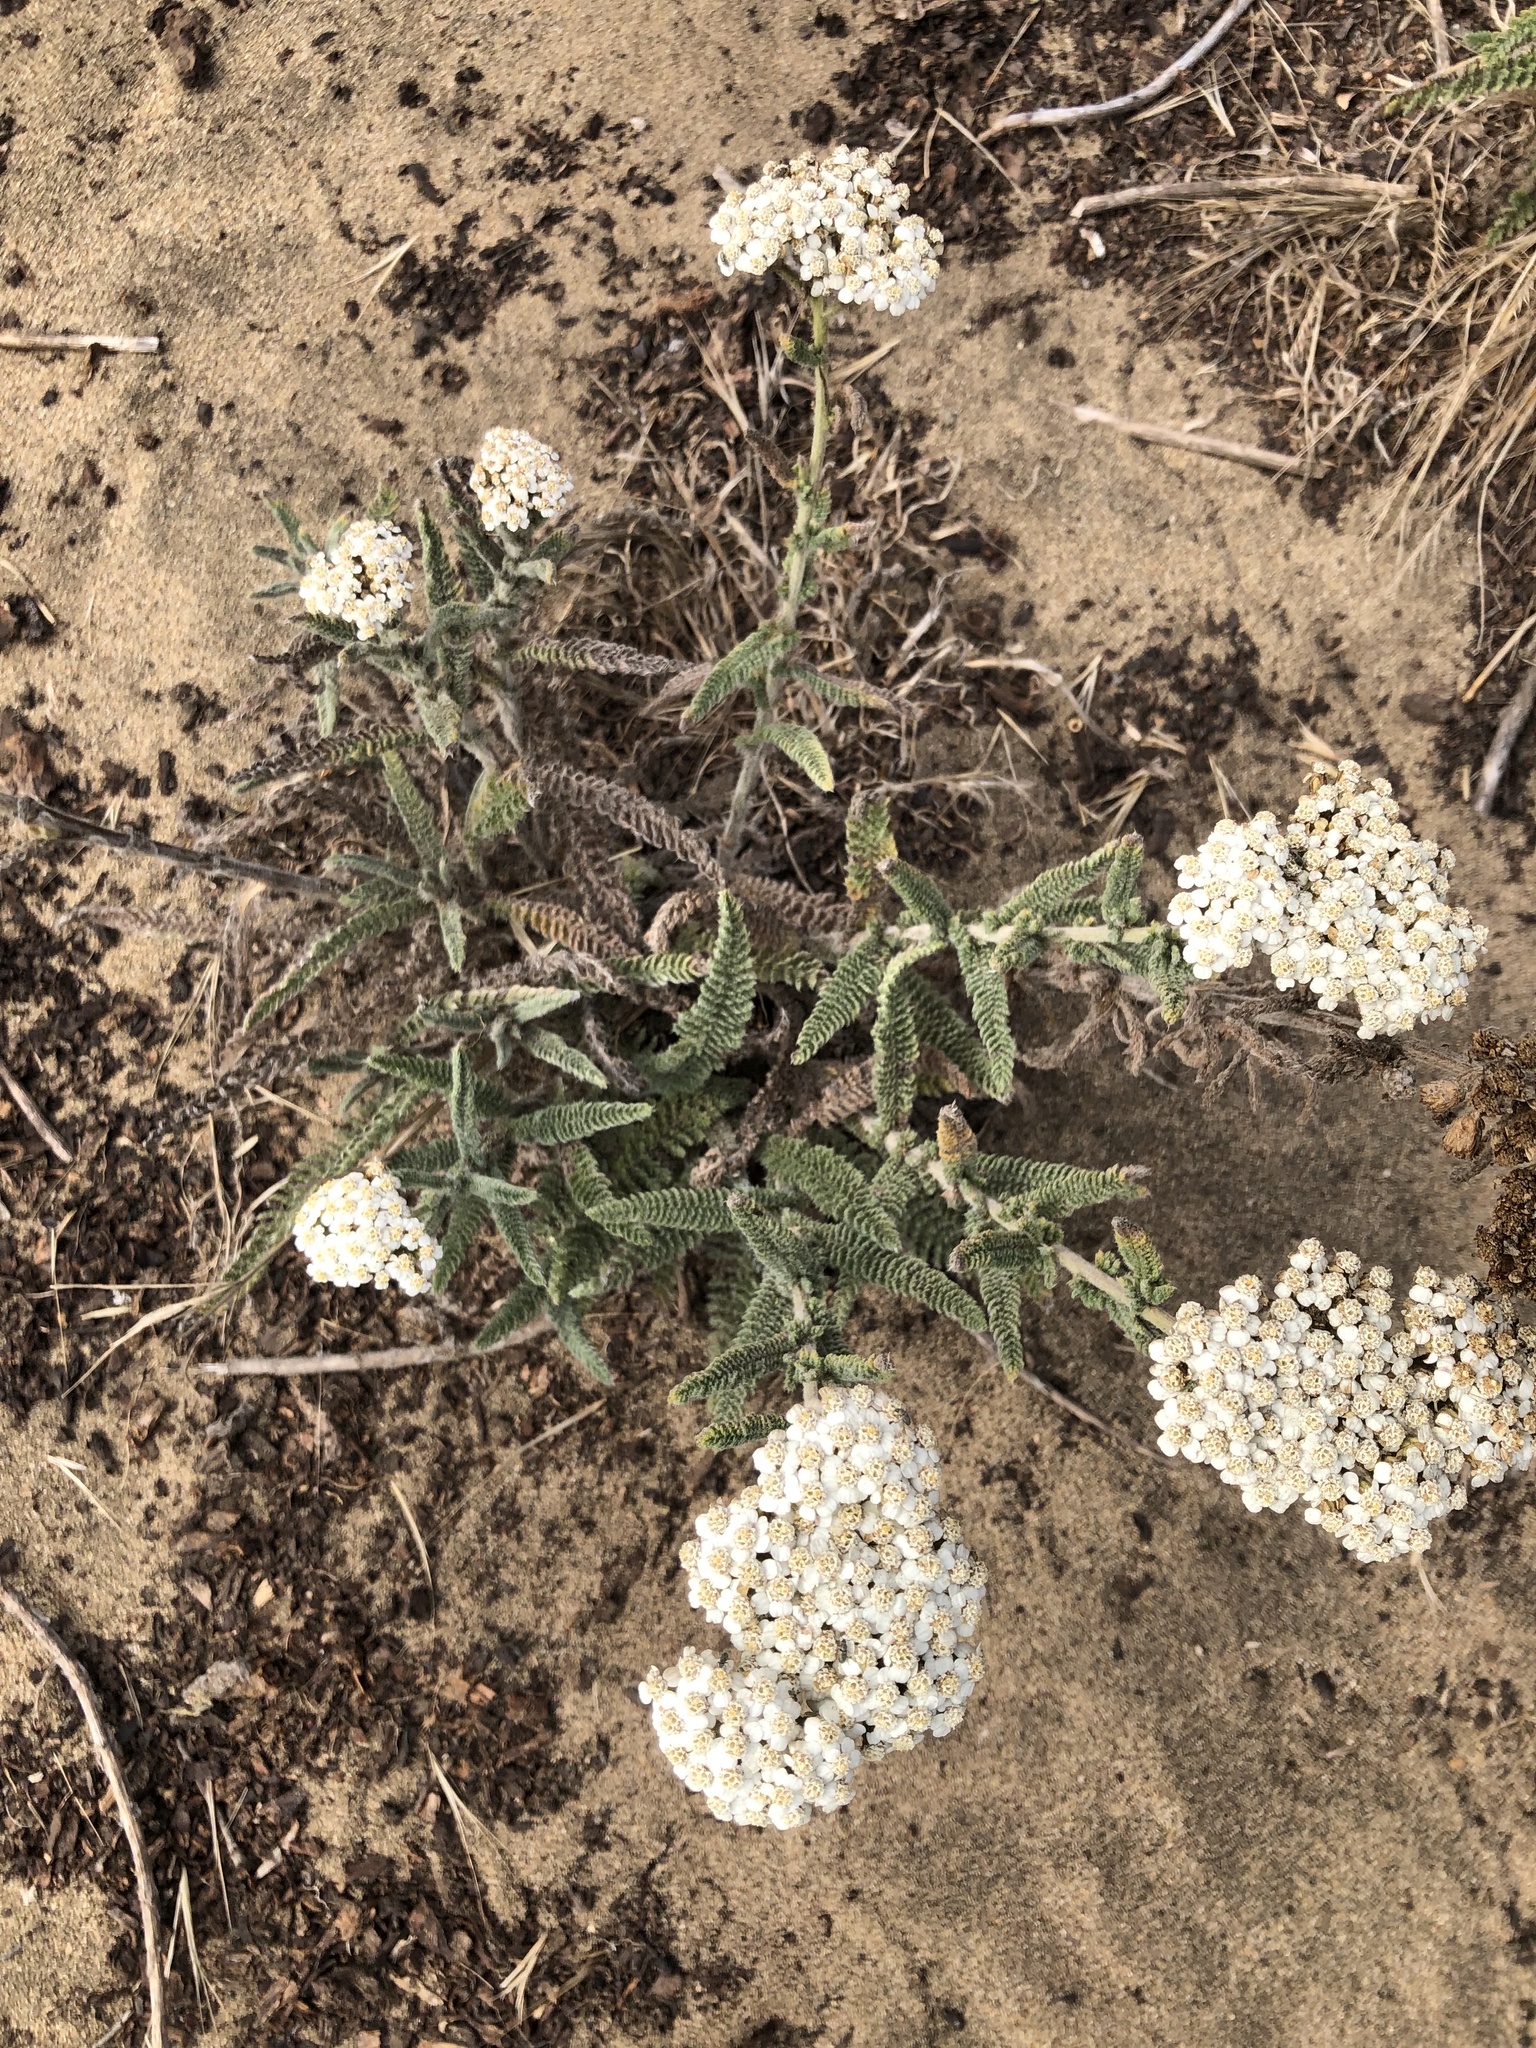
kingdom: Plantae
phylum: Tracheophyta
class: Magnoliopsida
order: Asterales
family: Asteraceae
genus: Achillea
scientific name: Achillea millefolium
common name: Yarrow
